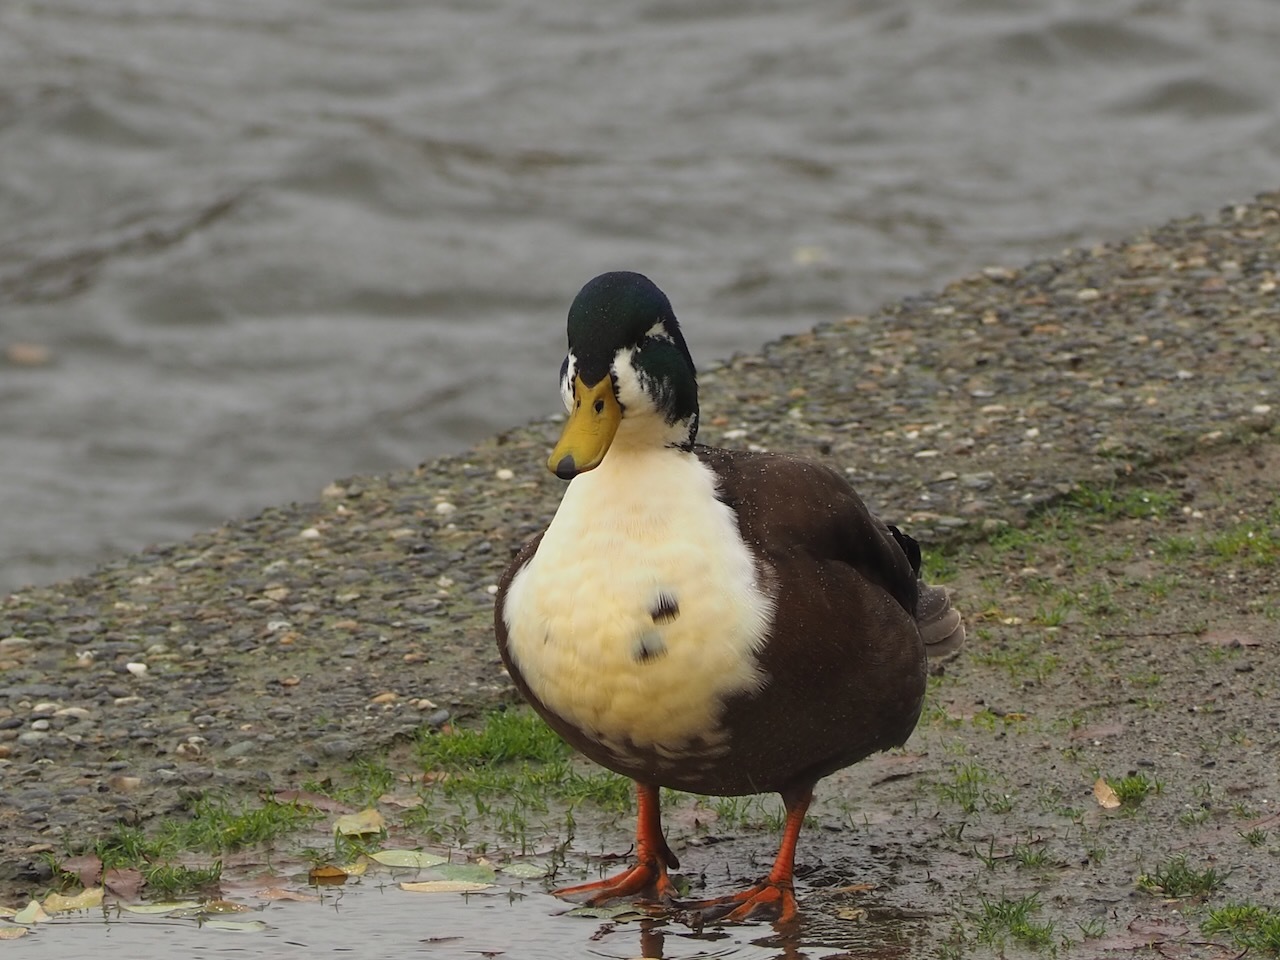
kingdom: Animalia
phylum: Chordata
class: Aves
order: Anseriformes
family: Anatidae
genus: Anas
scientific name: Anas platyrhynchos
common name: Mallard
